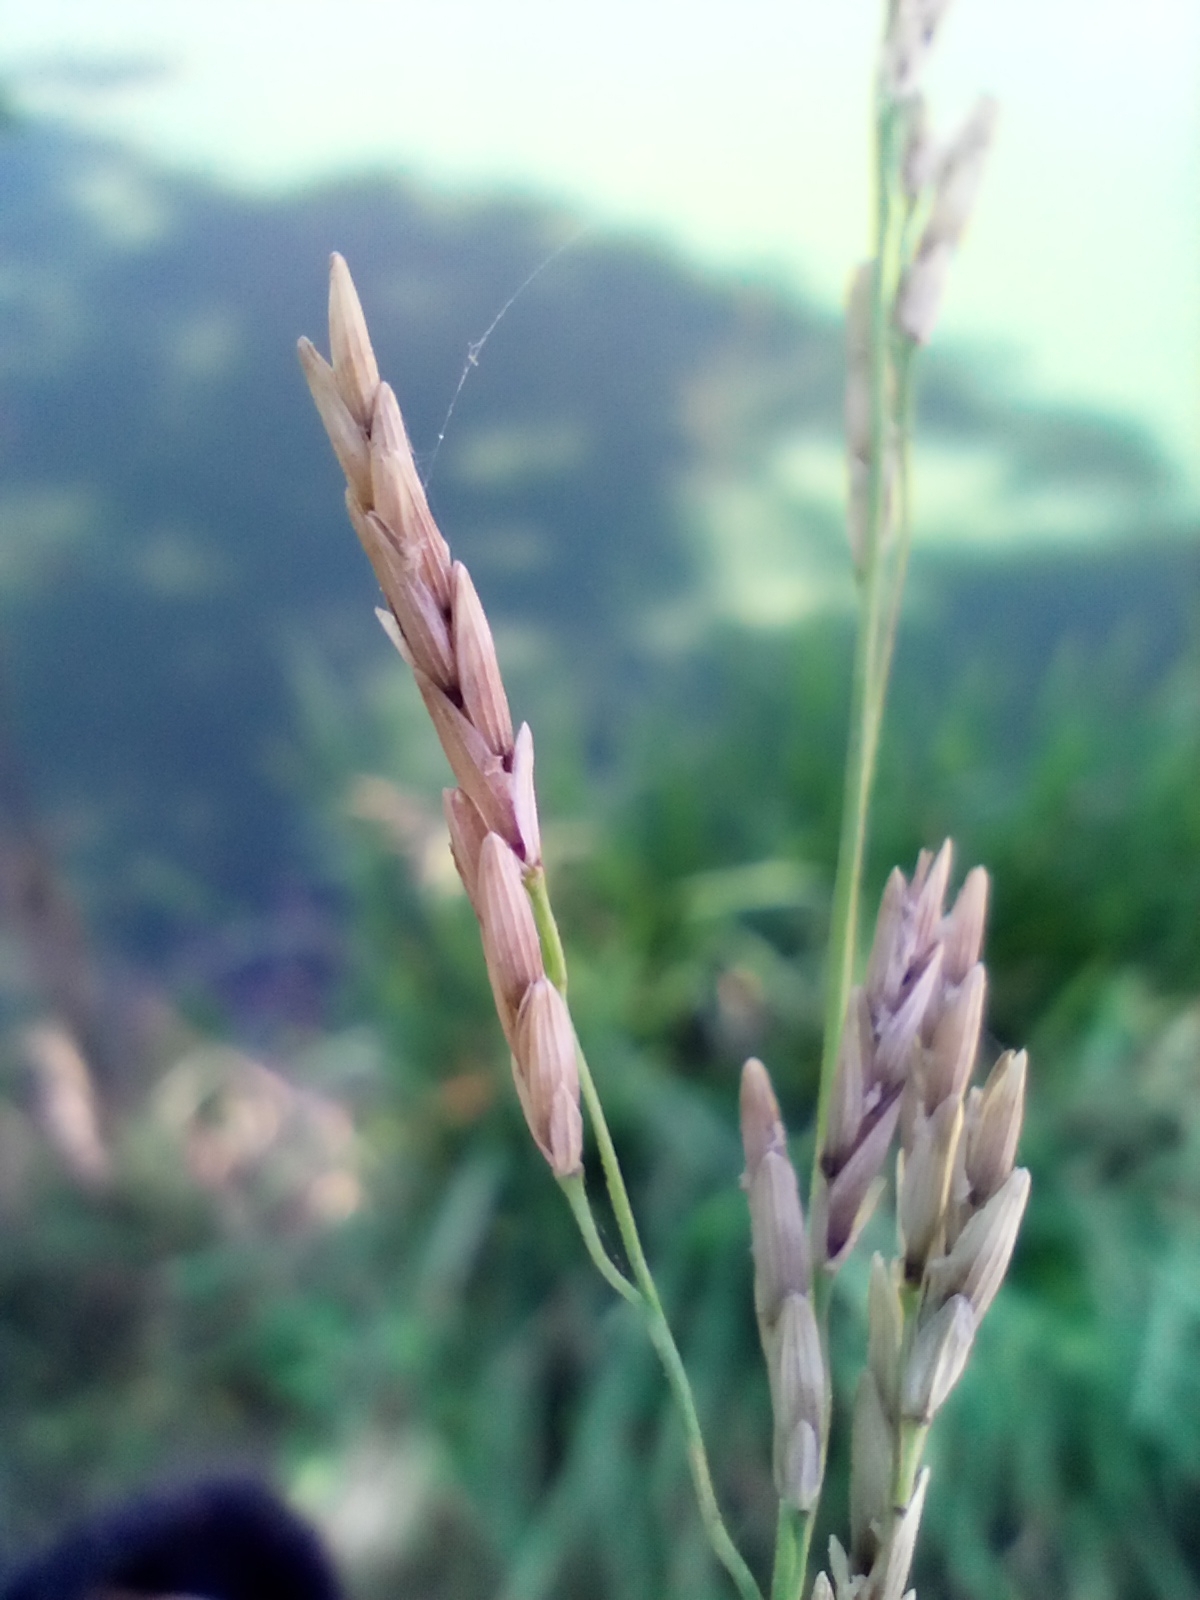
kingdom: Plantae
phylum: Tracheophyta
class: Liliopsida
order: Poales
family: Poaceae
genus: Glyceria
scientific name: Glyceria maxima
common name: Reed mannagrass
